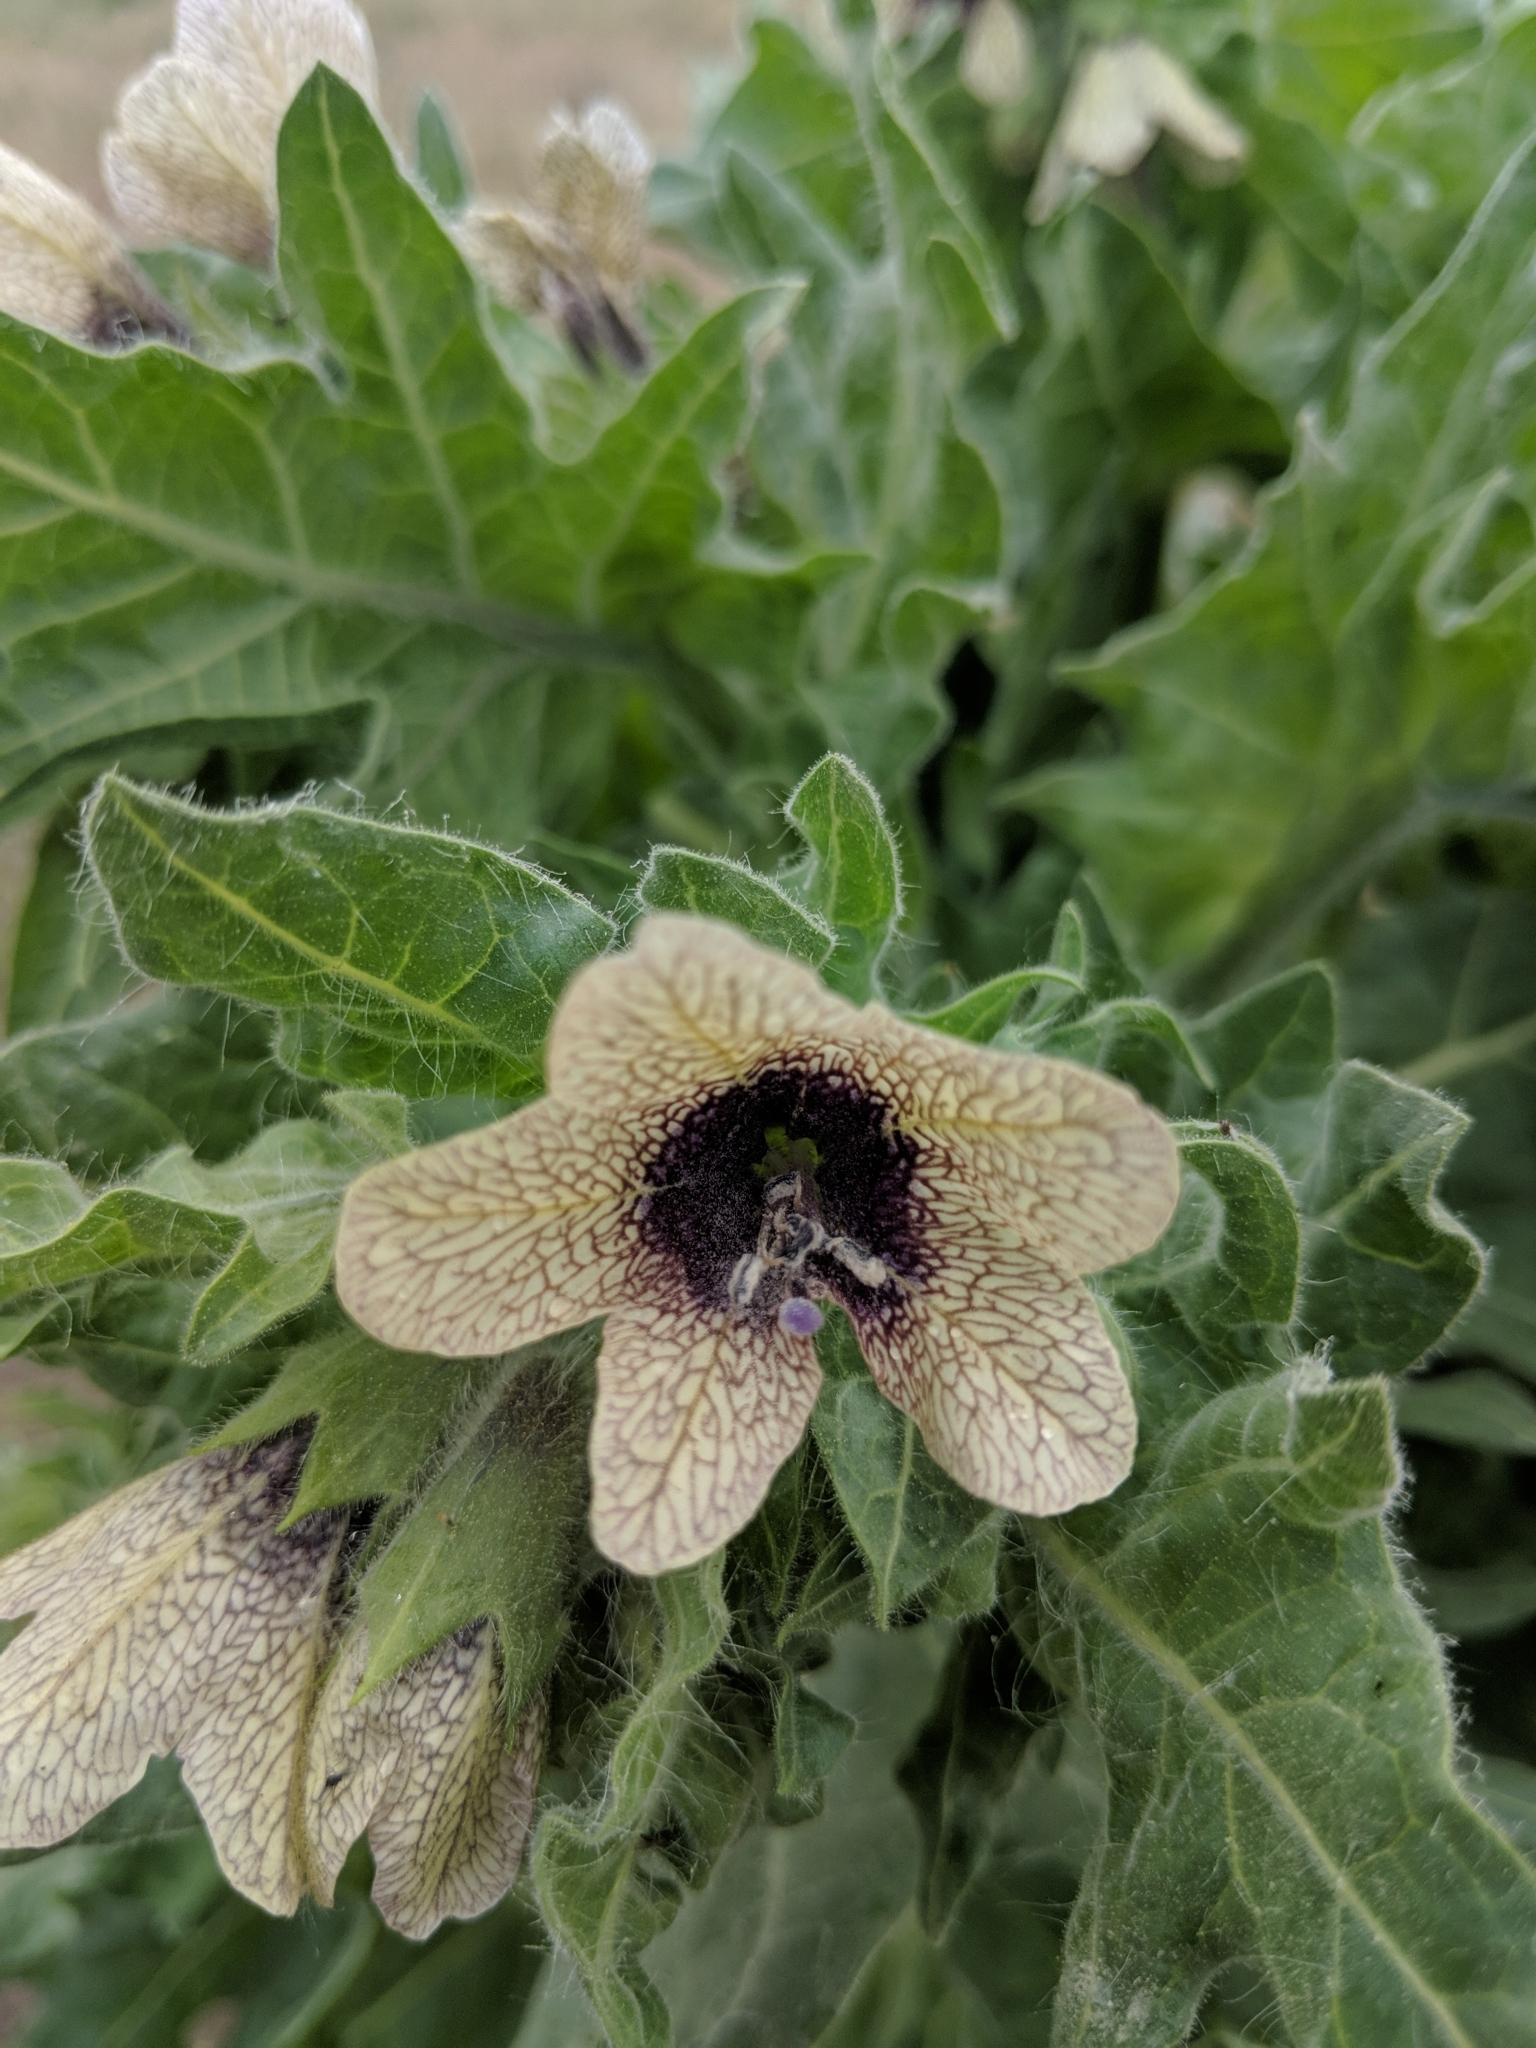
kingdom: Plantae
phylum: Tracheophyta
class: Magnoliopsida
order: Solanales
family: Solanaceae
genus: Hyoscyamus
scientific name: Hyoscyamus niger
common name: Henbane
